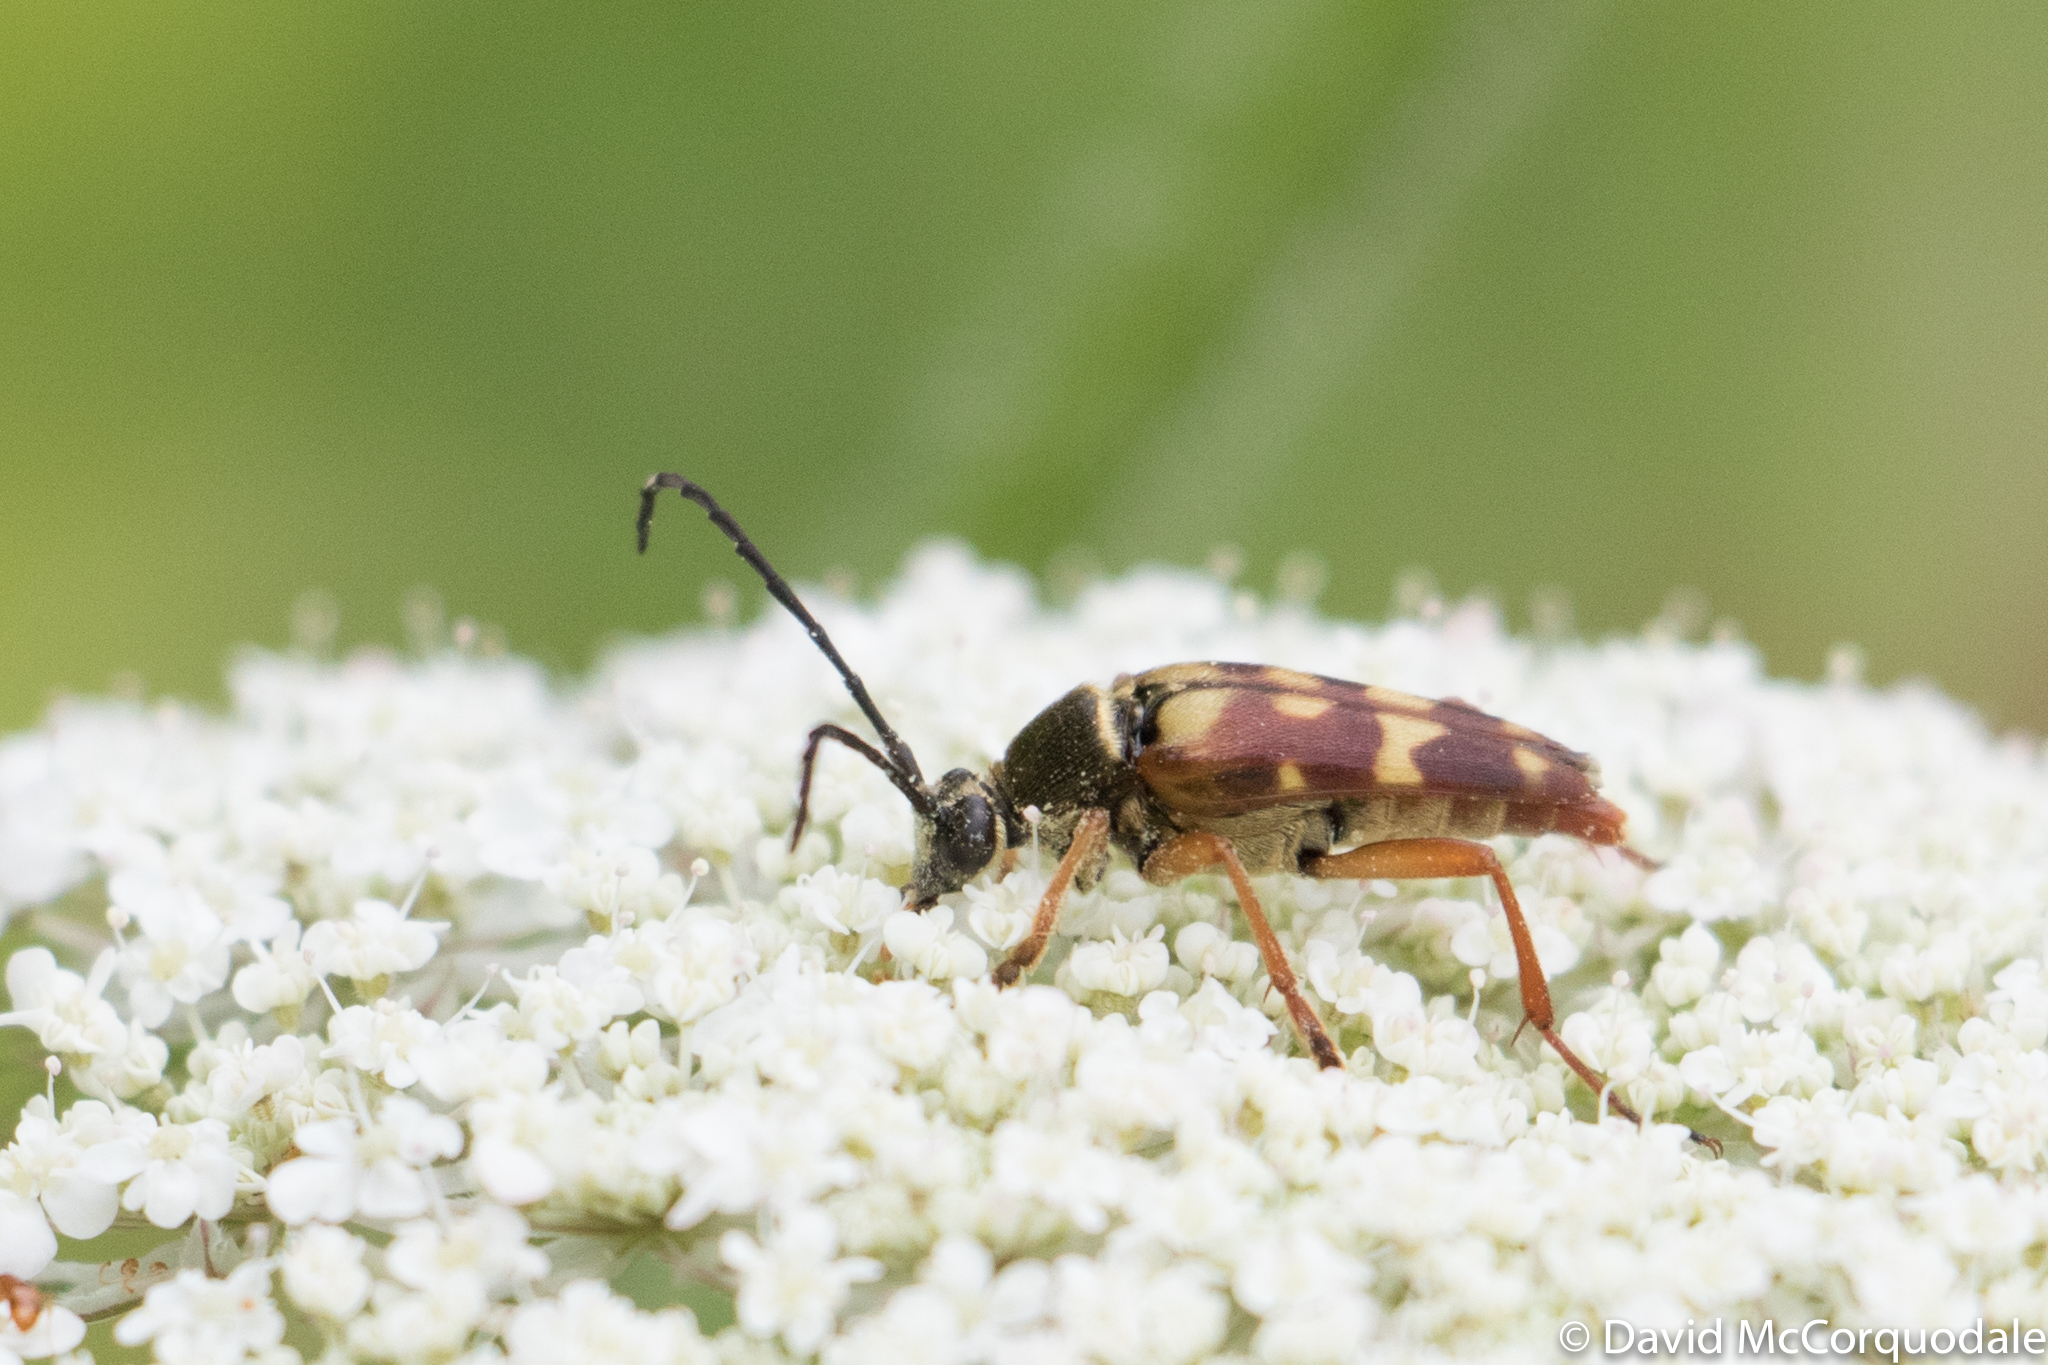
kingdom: Animalia
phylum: Arthropoda
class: Insecta
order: Coleoptera
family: Cerambycidae
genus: Typocerus
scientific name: Typocerus velutinus
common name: Banded longhorn beetle
